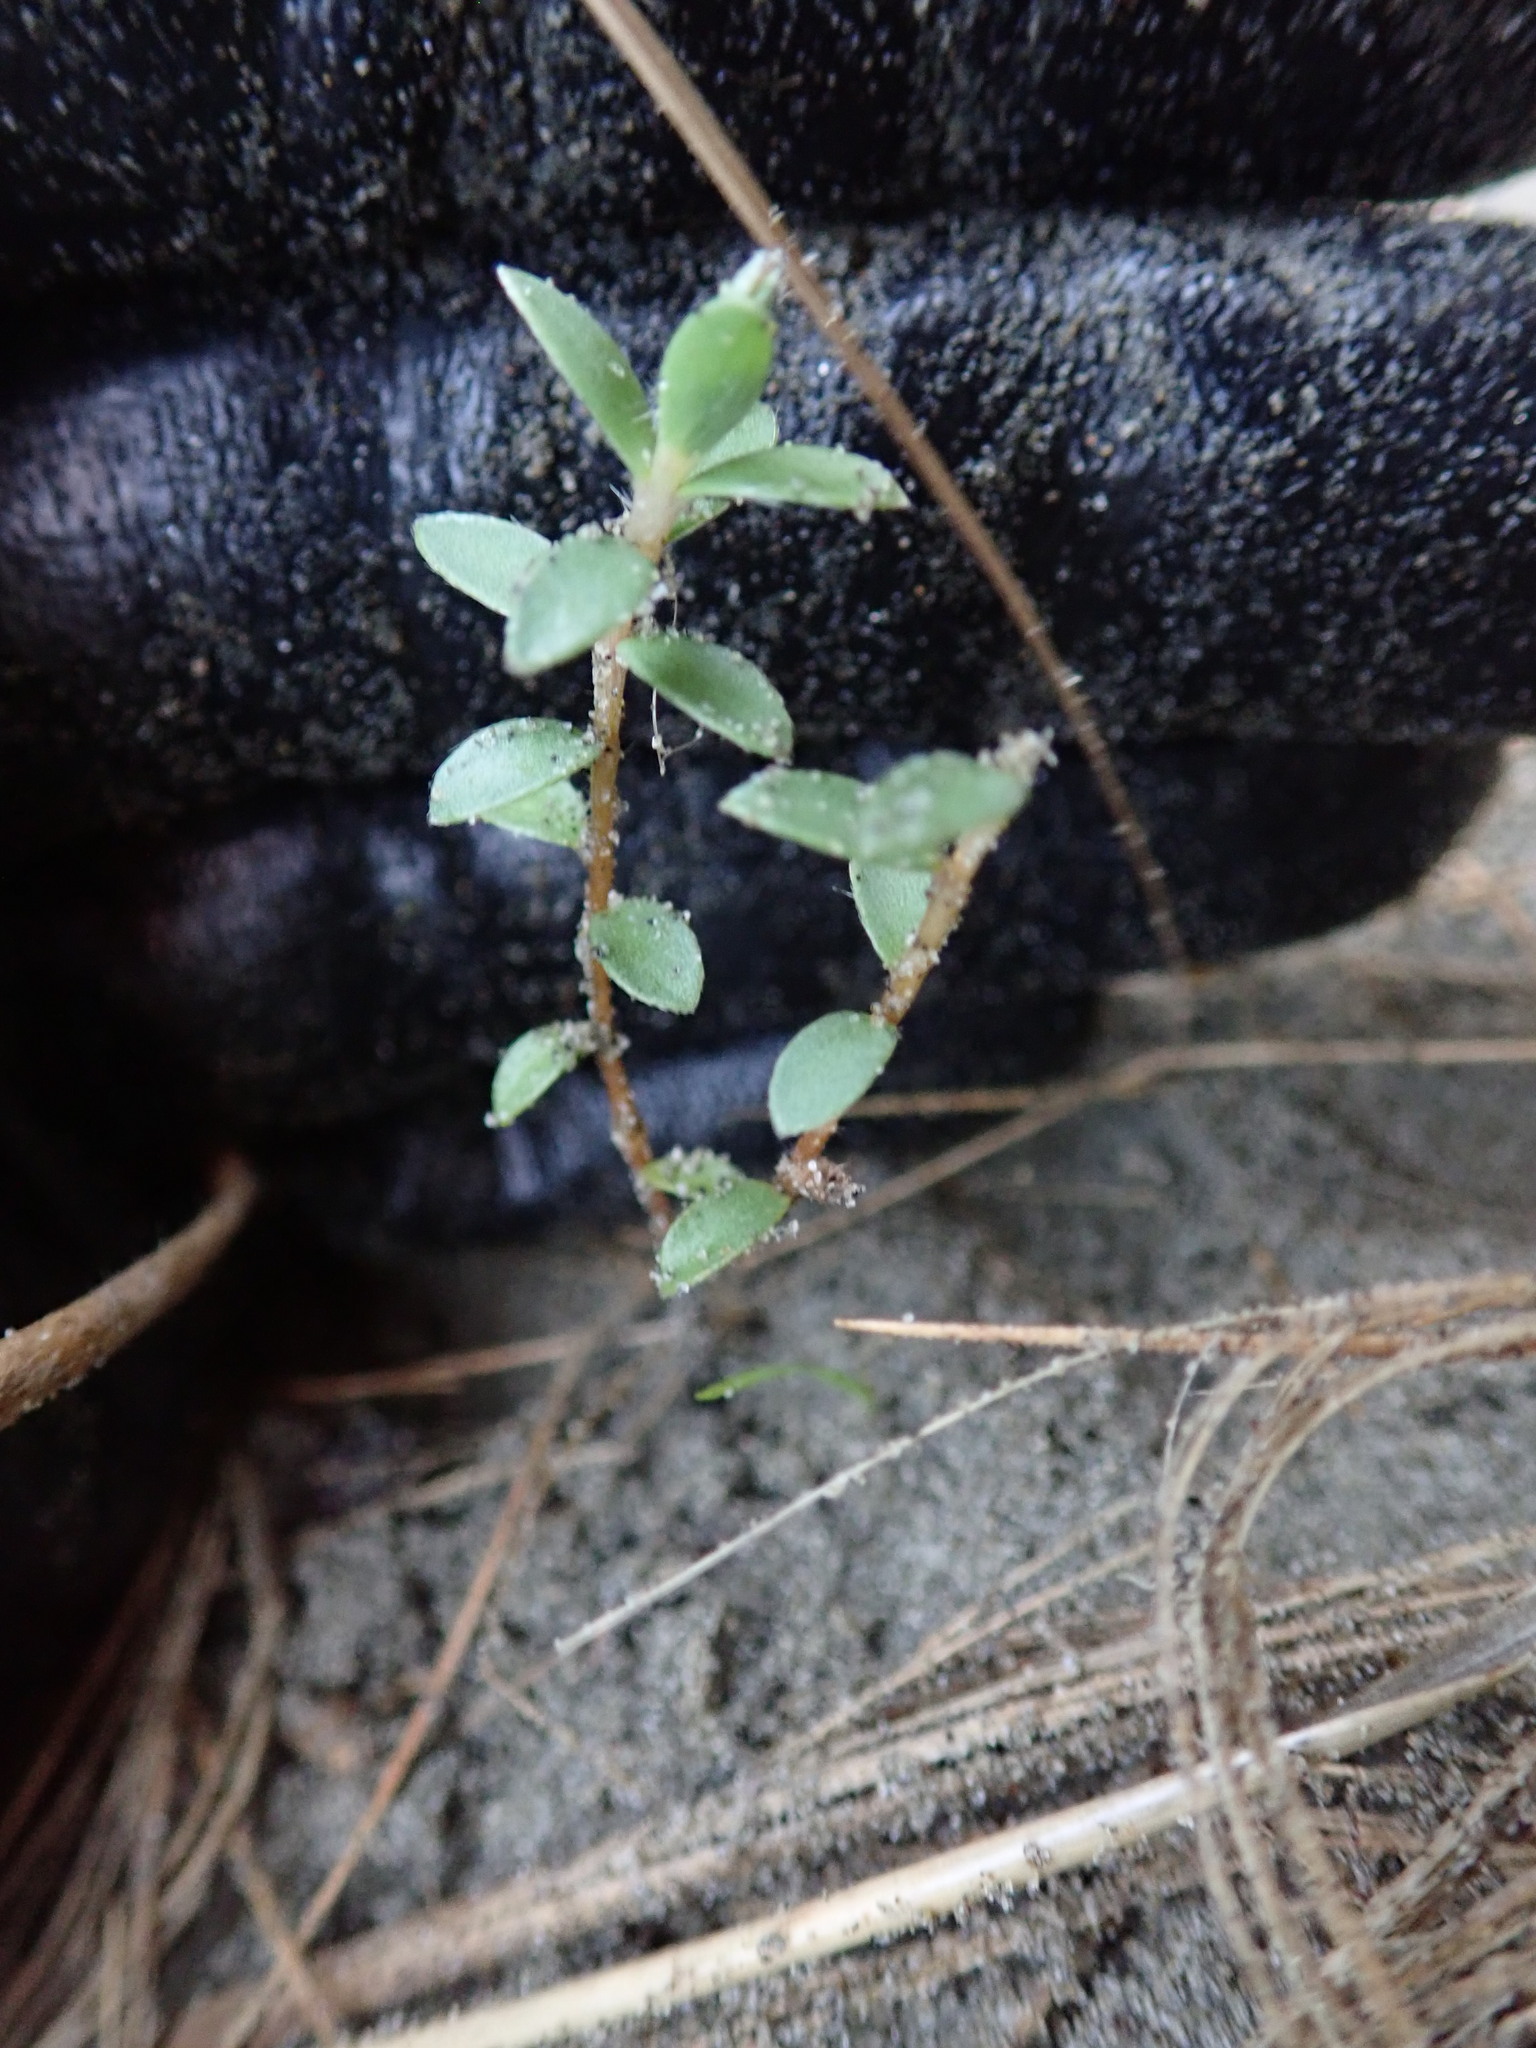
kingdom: Plantae
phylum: Tracheophyta
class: Magnoliopsida
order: Malvales
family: Thymelaeaceae
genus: Pimelea
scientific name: Pimelea villosa
